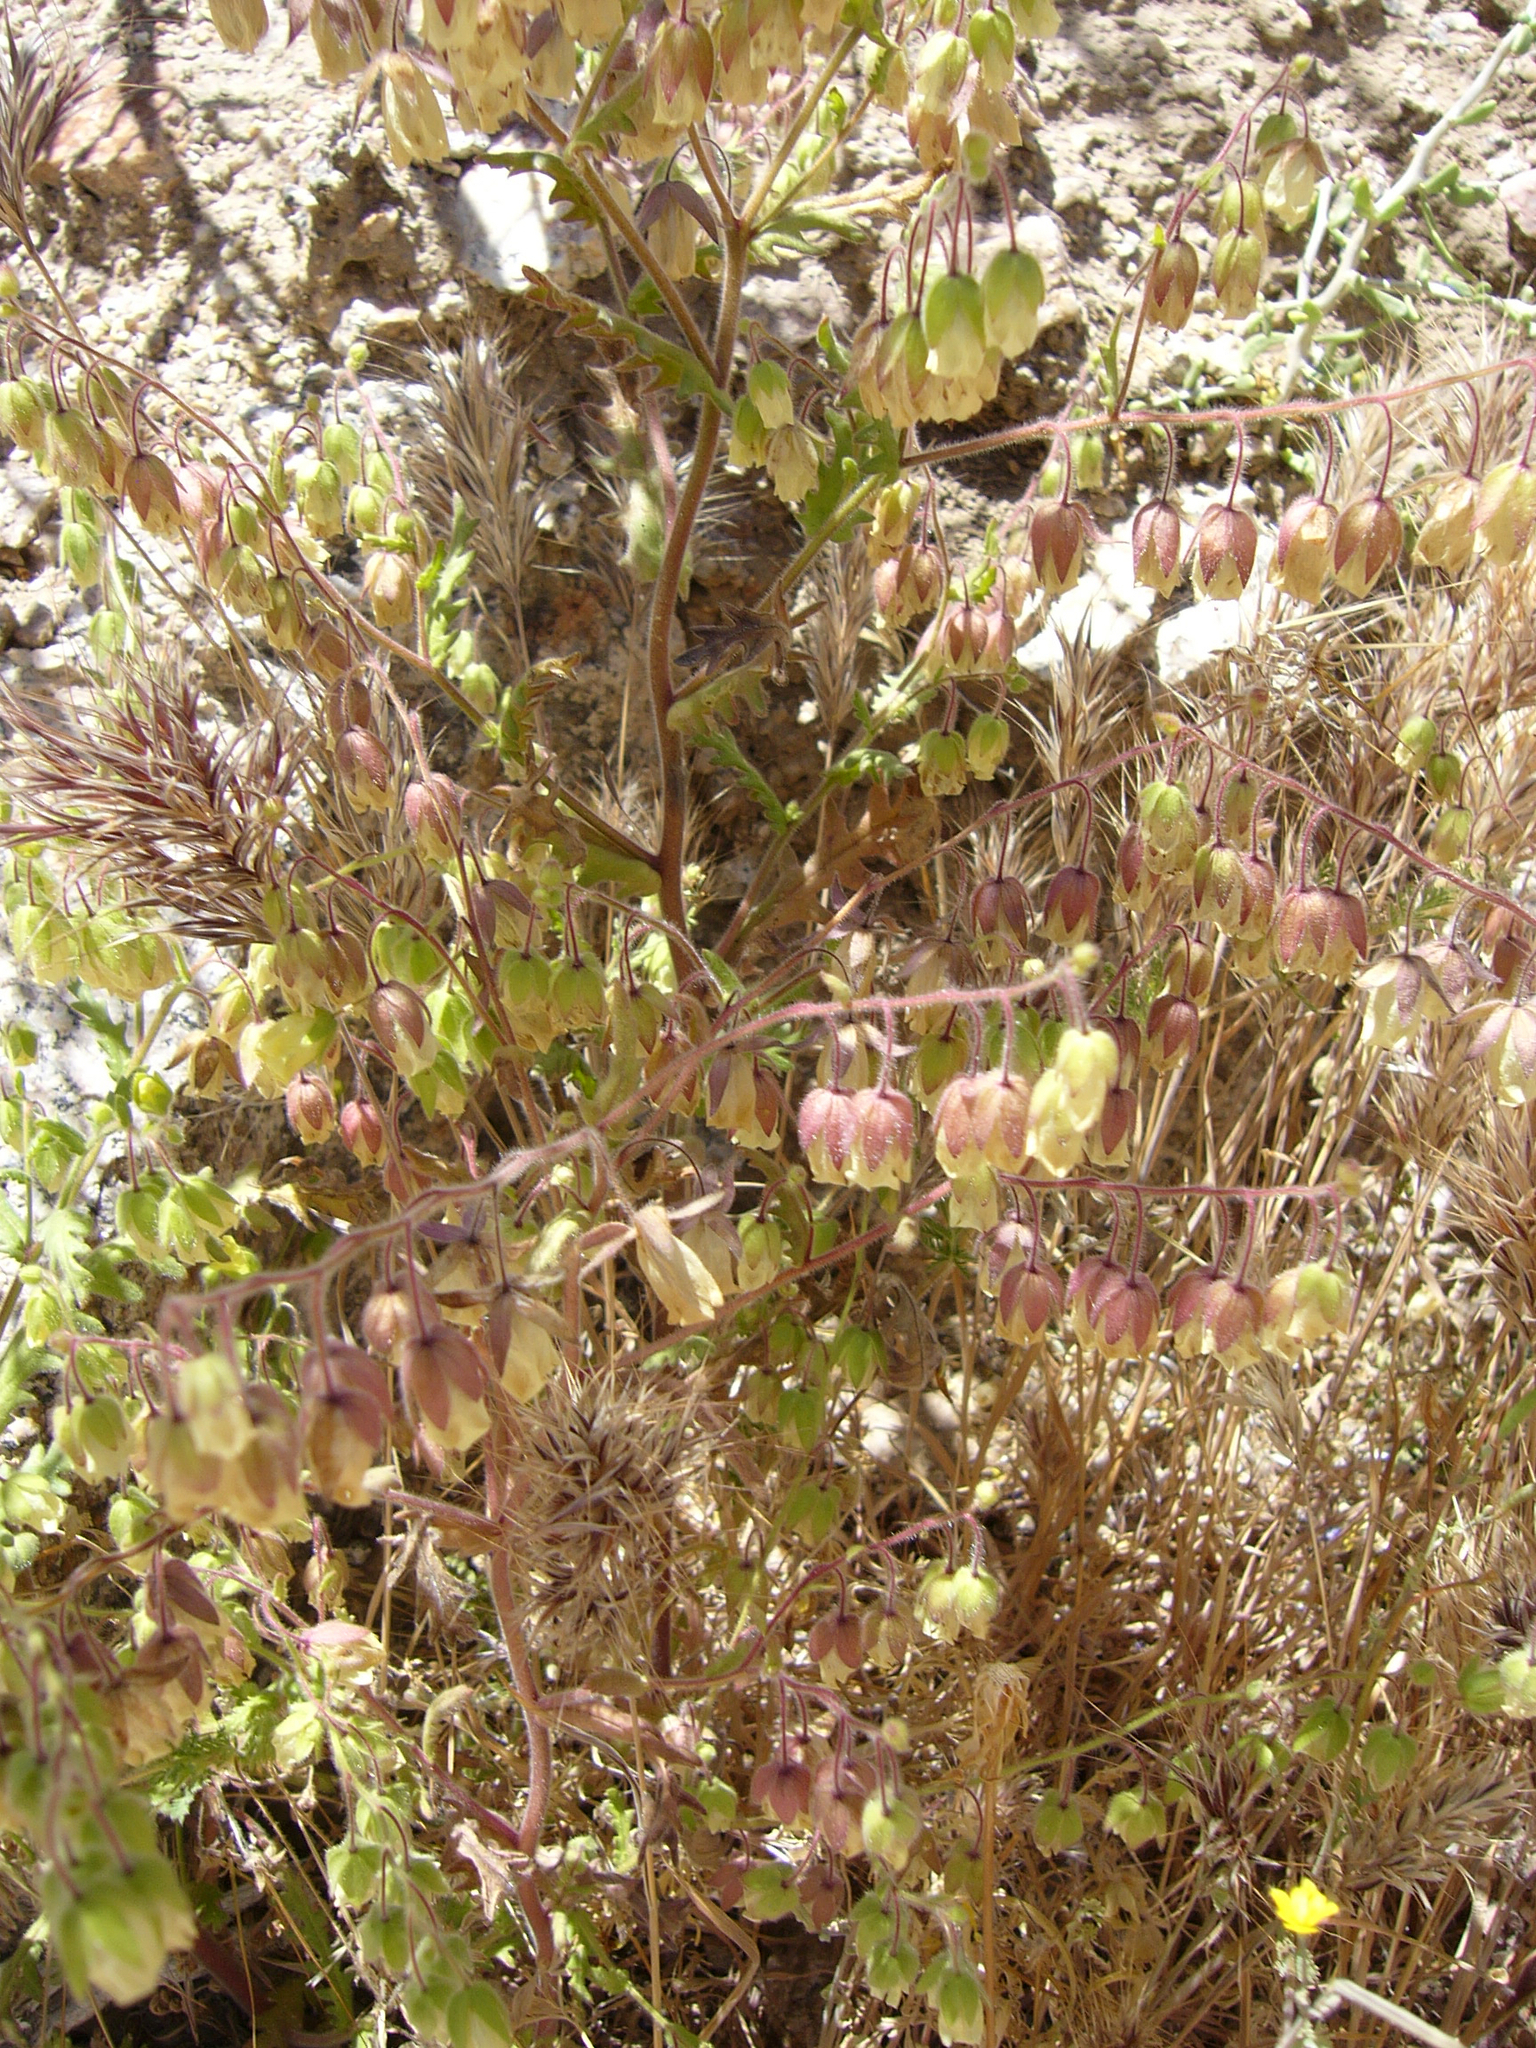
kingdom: Plantae
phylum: Tracheophyta
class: Magnoliopsida
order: Boraginales
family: Hydrophyllaceae
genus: Emmenanthe
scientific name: Emmenanthe penduliflora
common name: Whispering-bells
